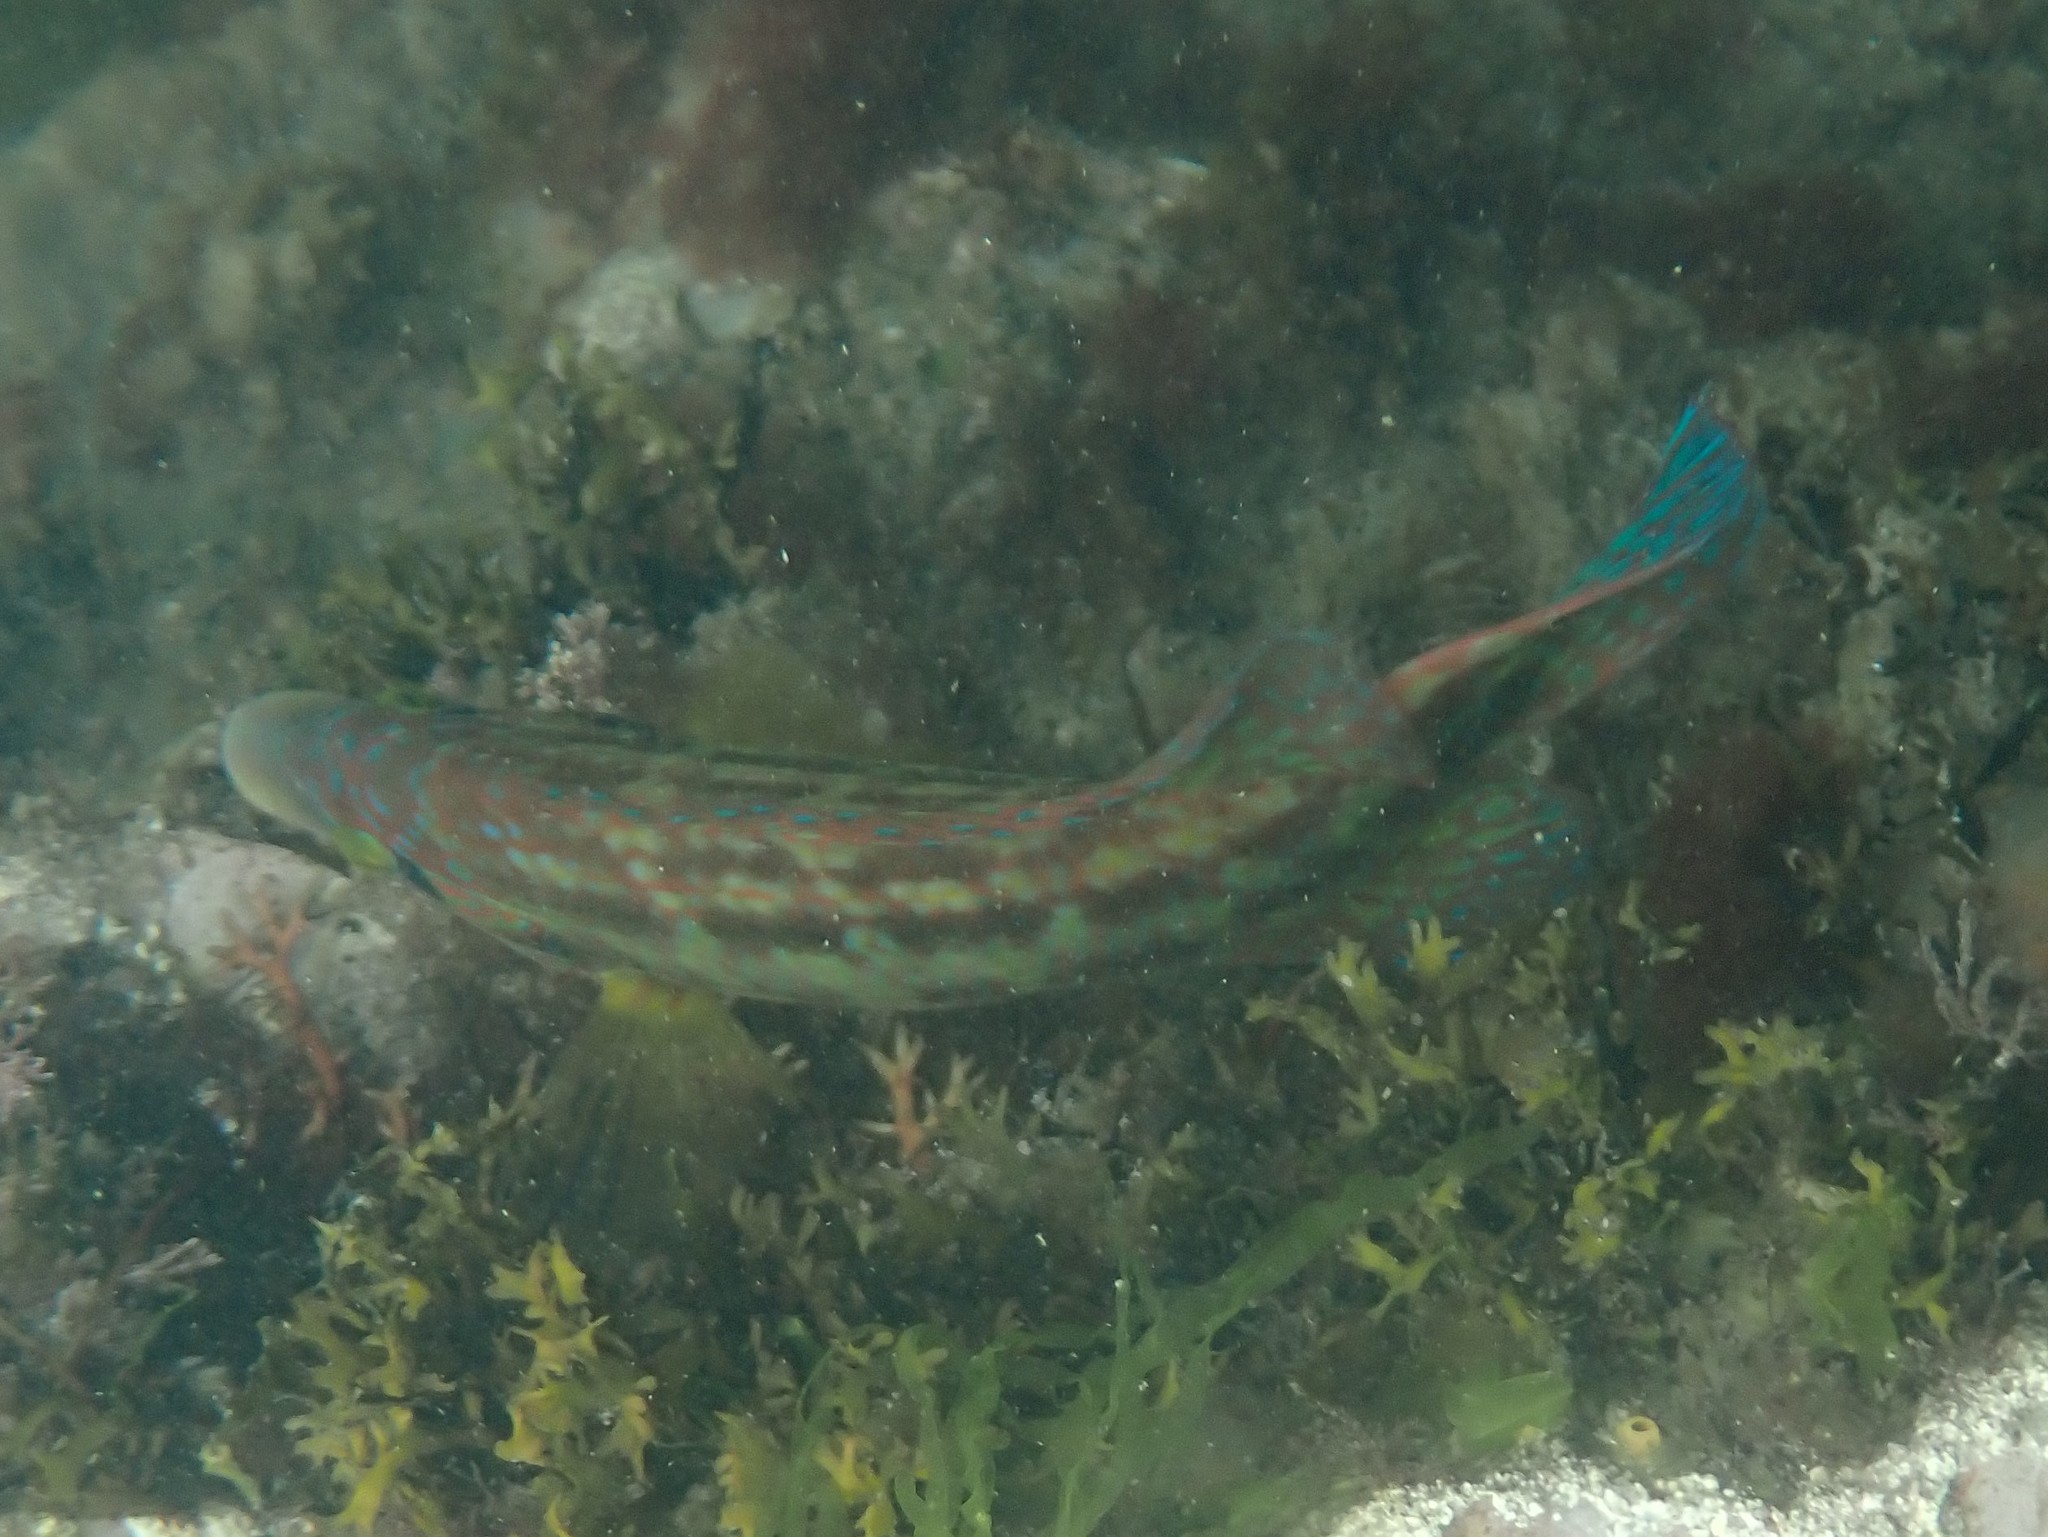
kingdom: Animalia
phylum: Chordata
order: Perciformes
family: Labridae
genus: Symphodus
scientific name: Symphodus melops
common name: Corkwing
